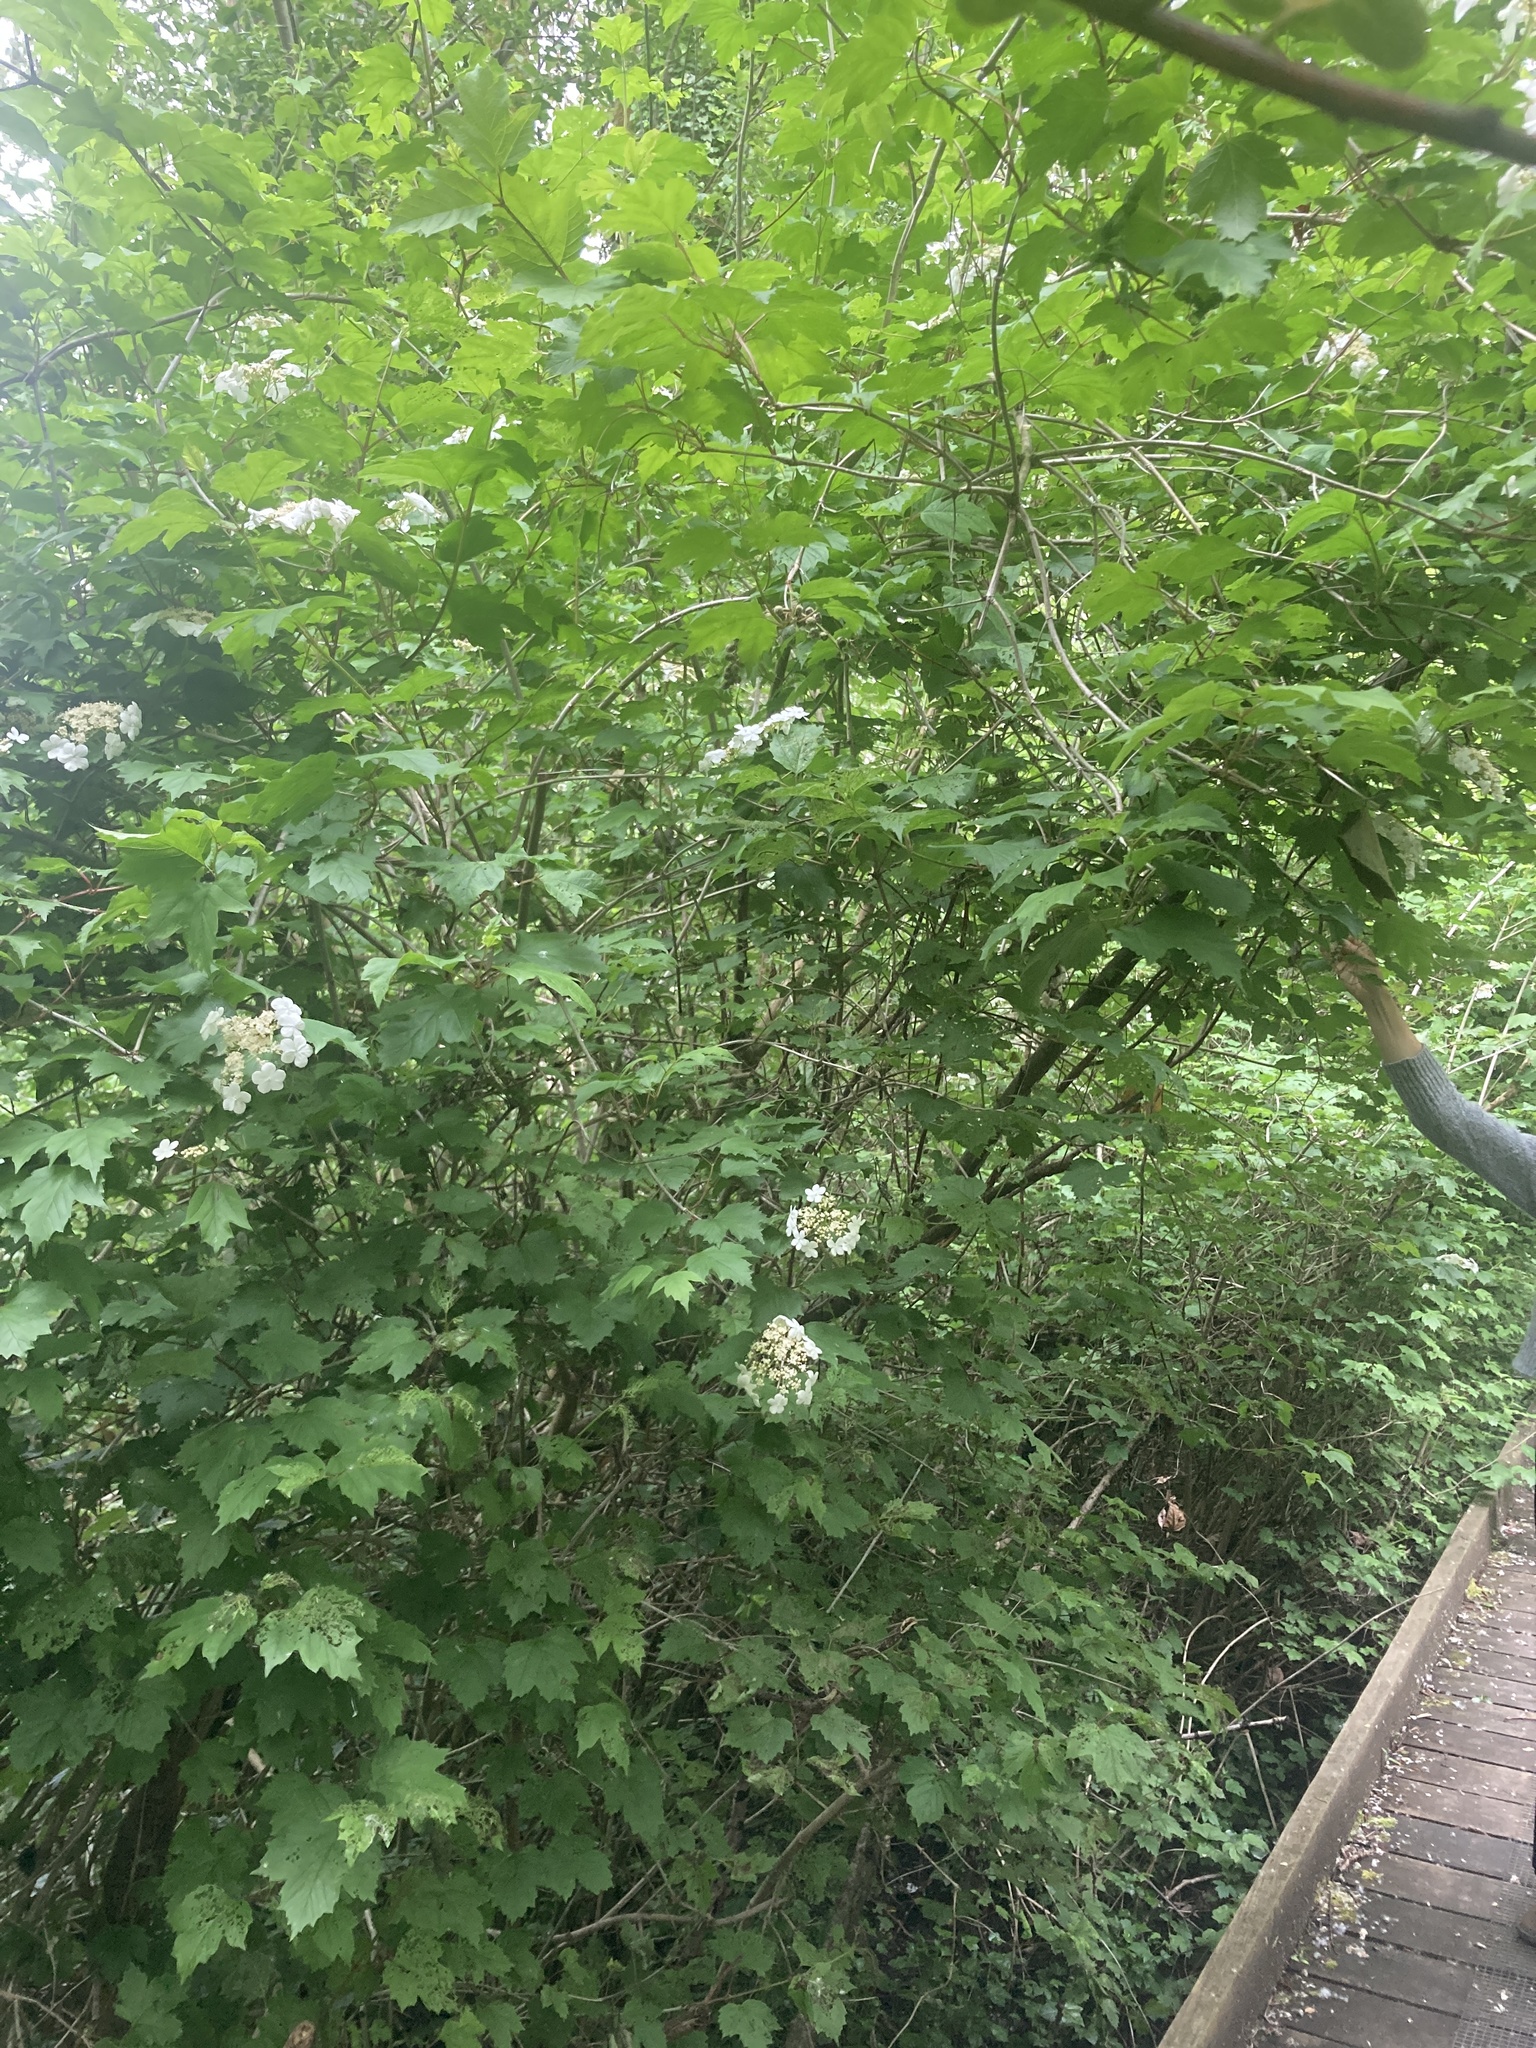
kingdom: Plantae
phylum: Tracheophyta
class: Magnoliopsida
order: Dipsacales
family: Viburnaceae
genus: Viburnum
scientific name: Viburnum opulus
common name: Guelder-rose
